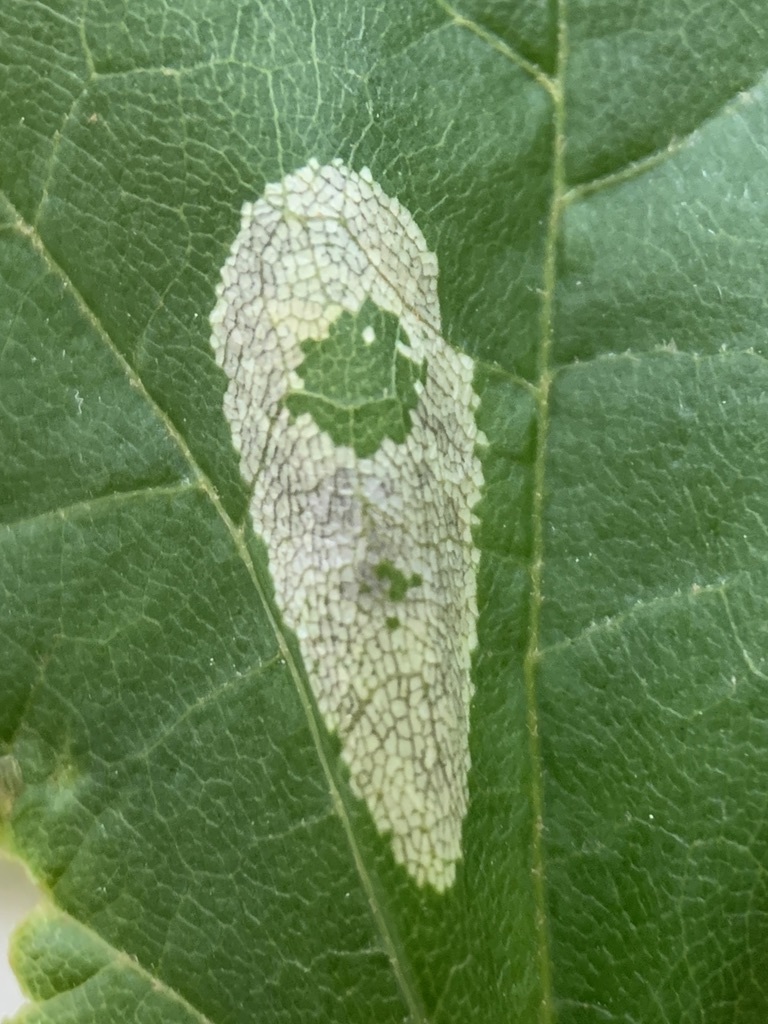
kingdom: Animalia
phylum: Arthropoda
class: Insecta
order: Lepidoptera
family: Gracillariidae
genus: Phyllonorycter
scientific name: Phyllonorycter trinotella
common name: Red maple blotchminer
